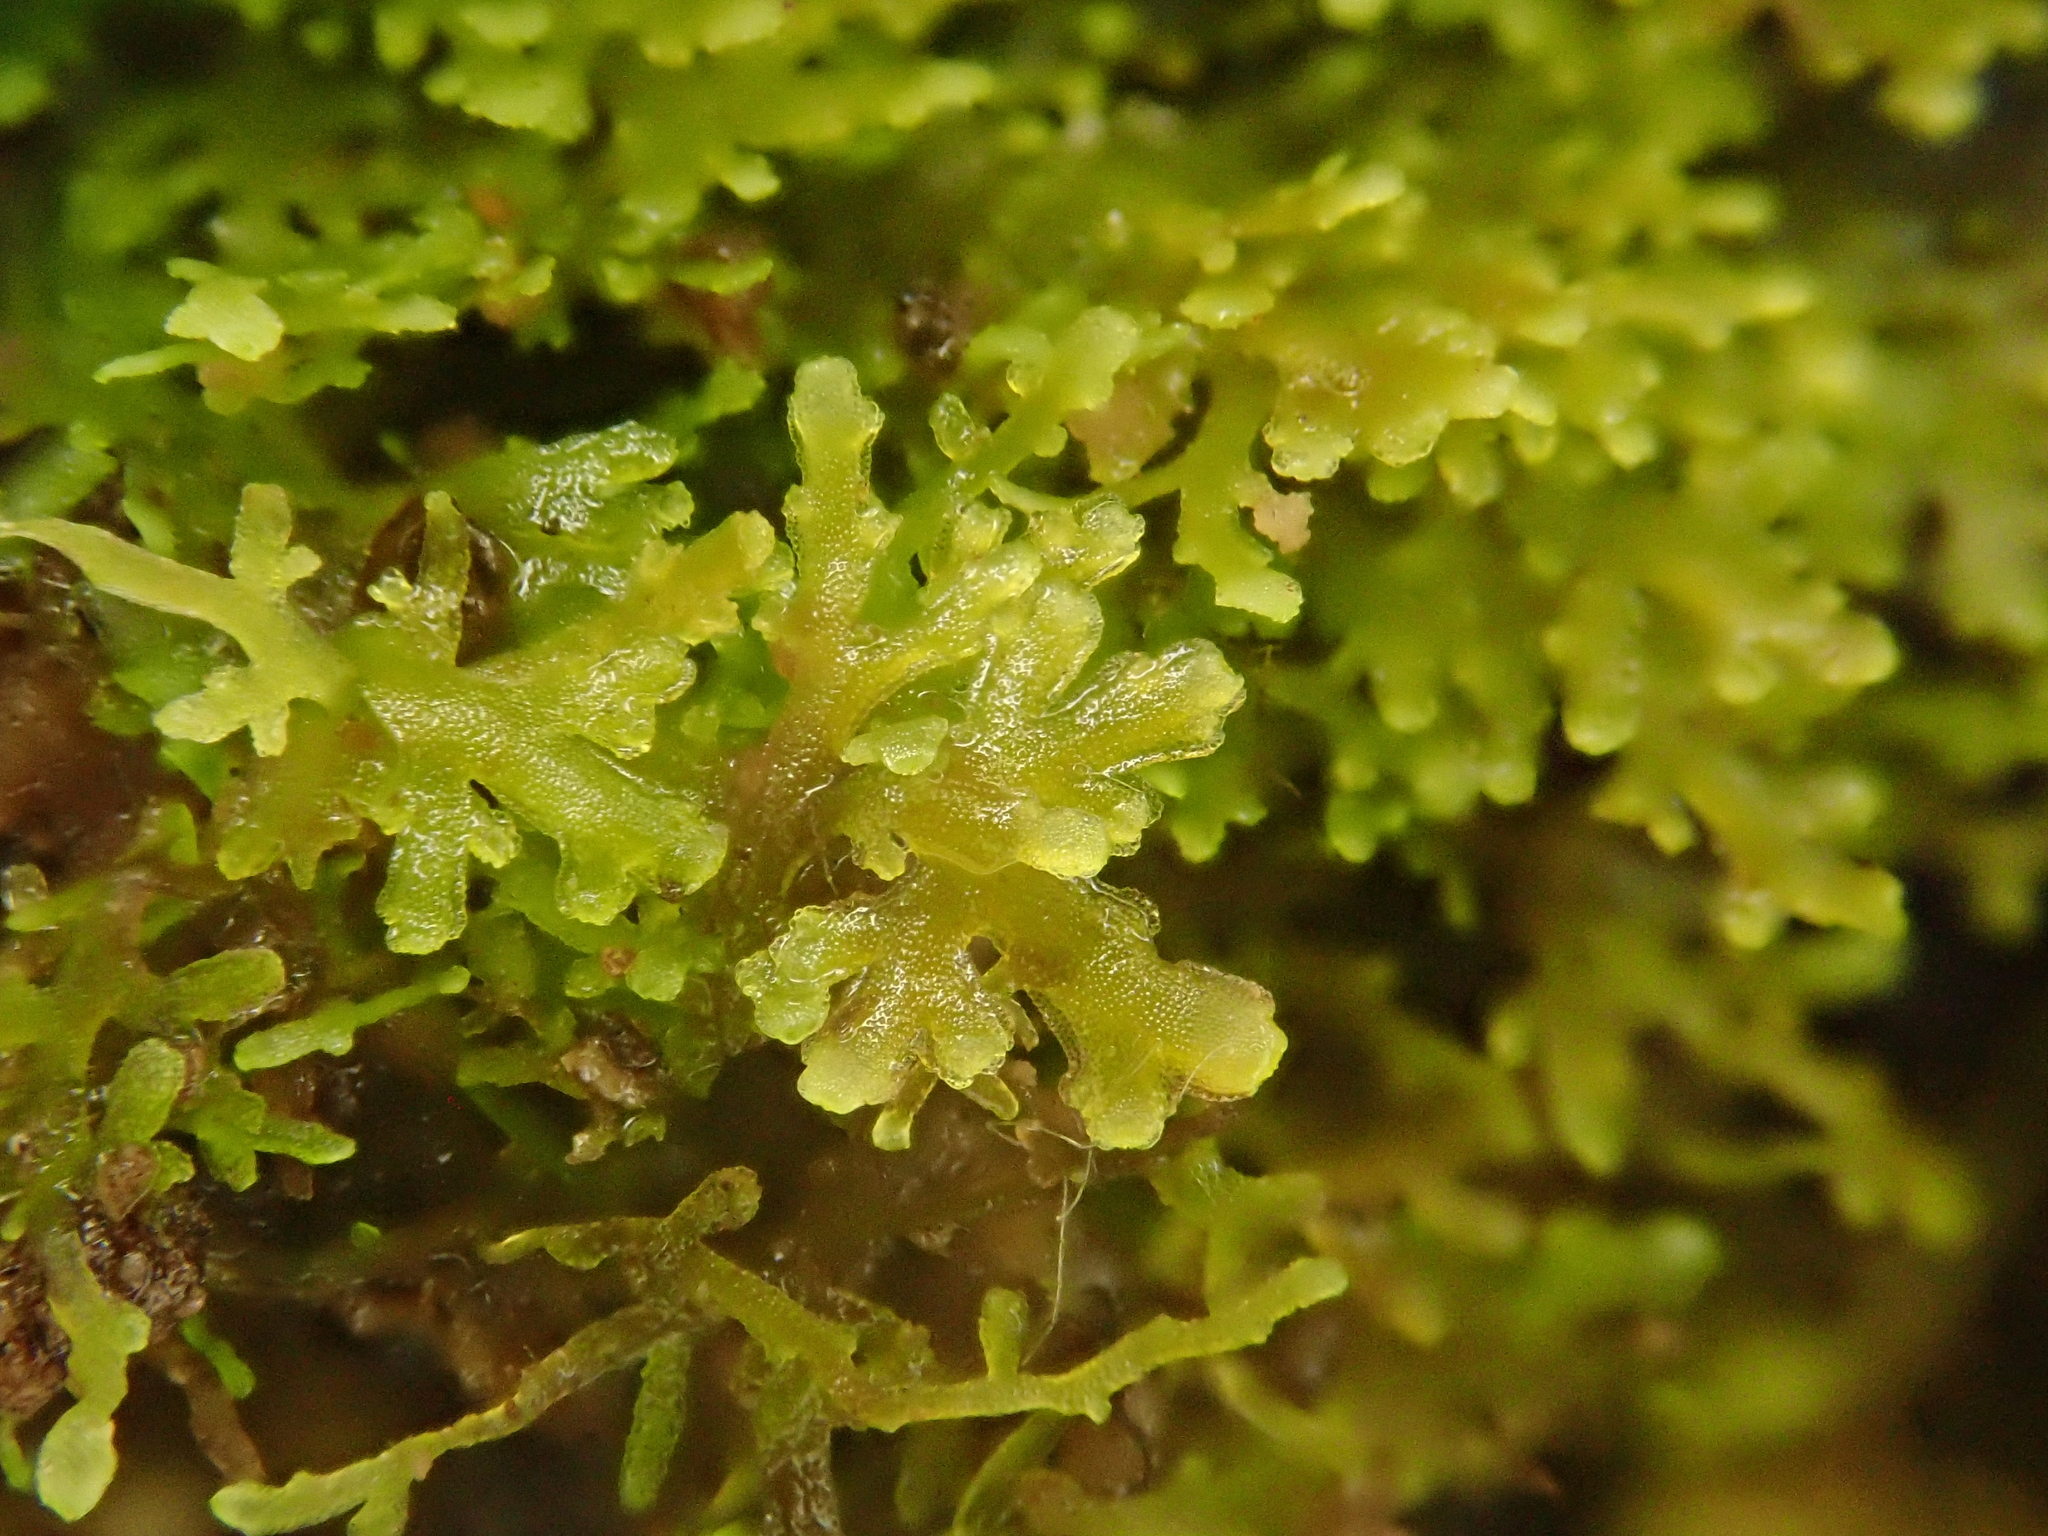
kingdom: Plantae
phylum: Marchantiophyta
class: Jungermanniopsida
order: Metzgeriales
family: Aneuraceae
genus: Riccardia
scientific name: Riccardia multifida
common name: Delicate germanderwort
